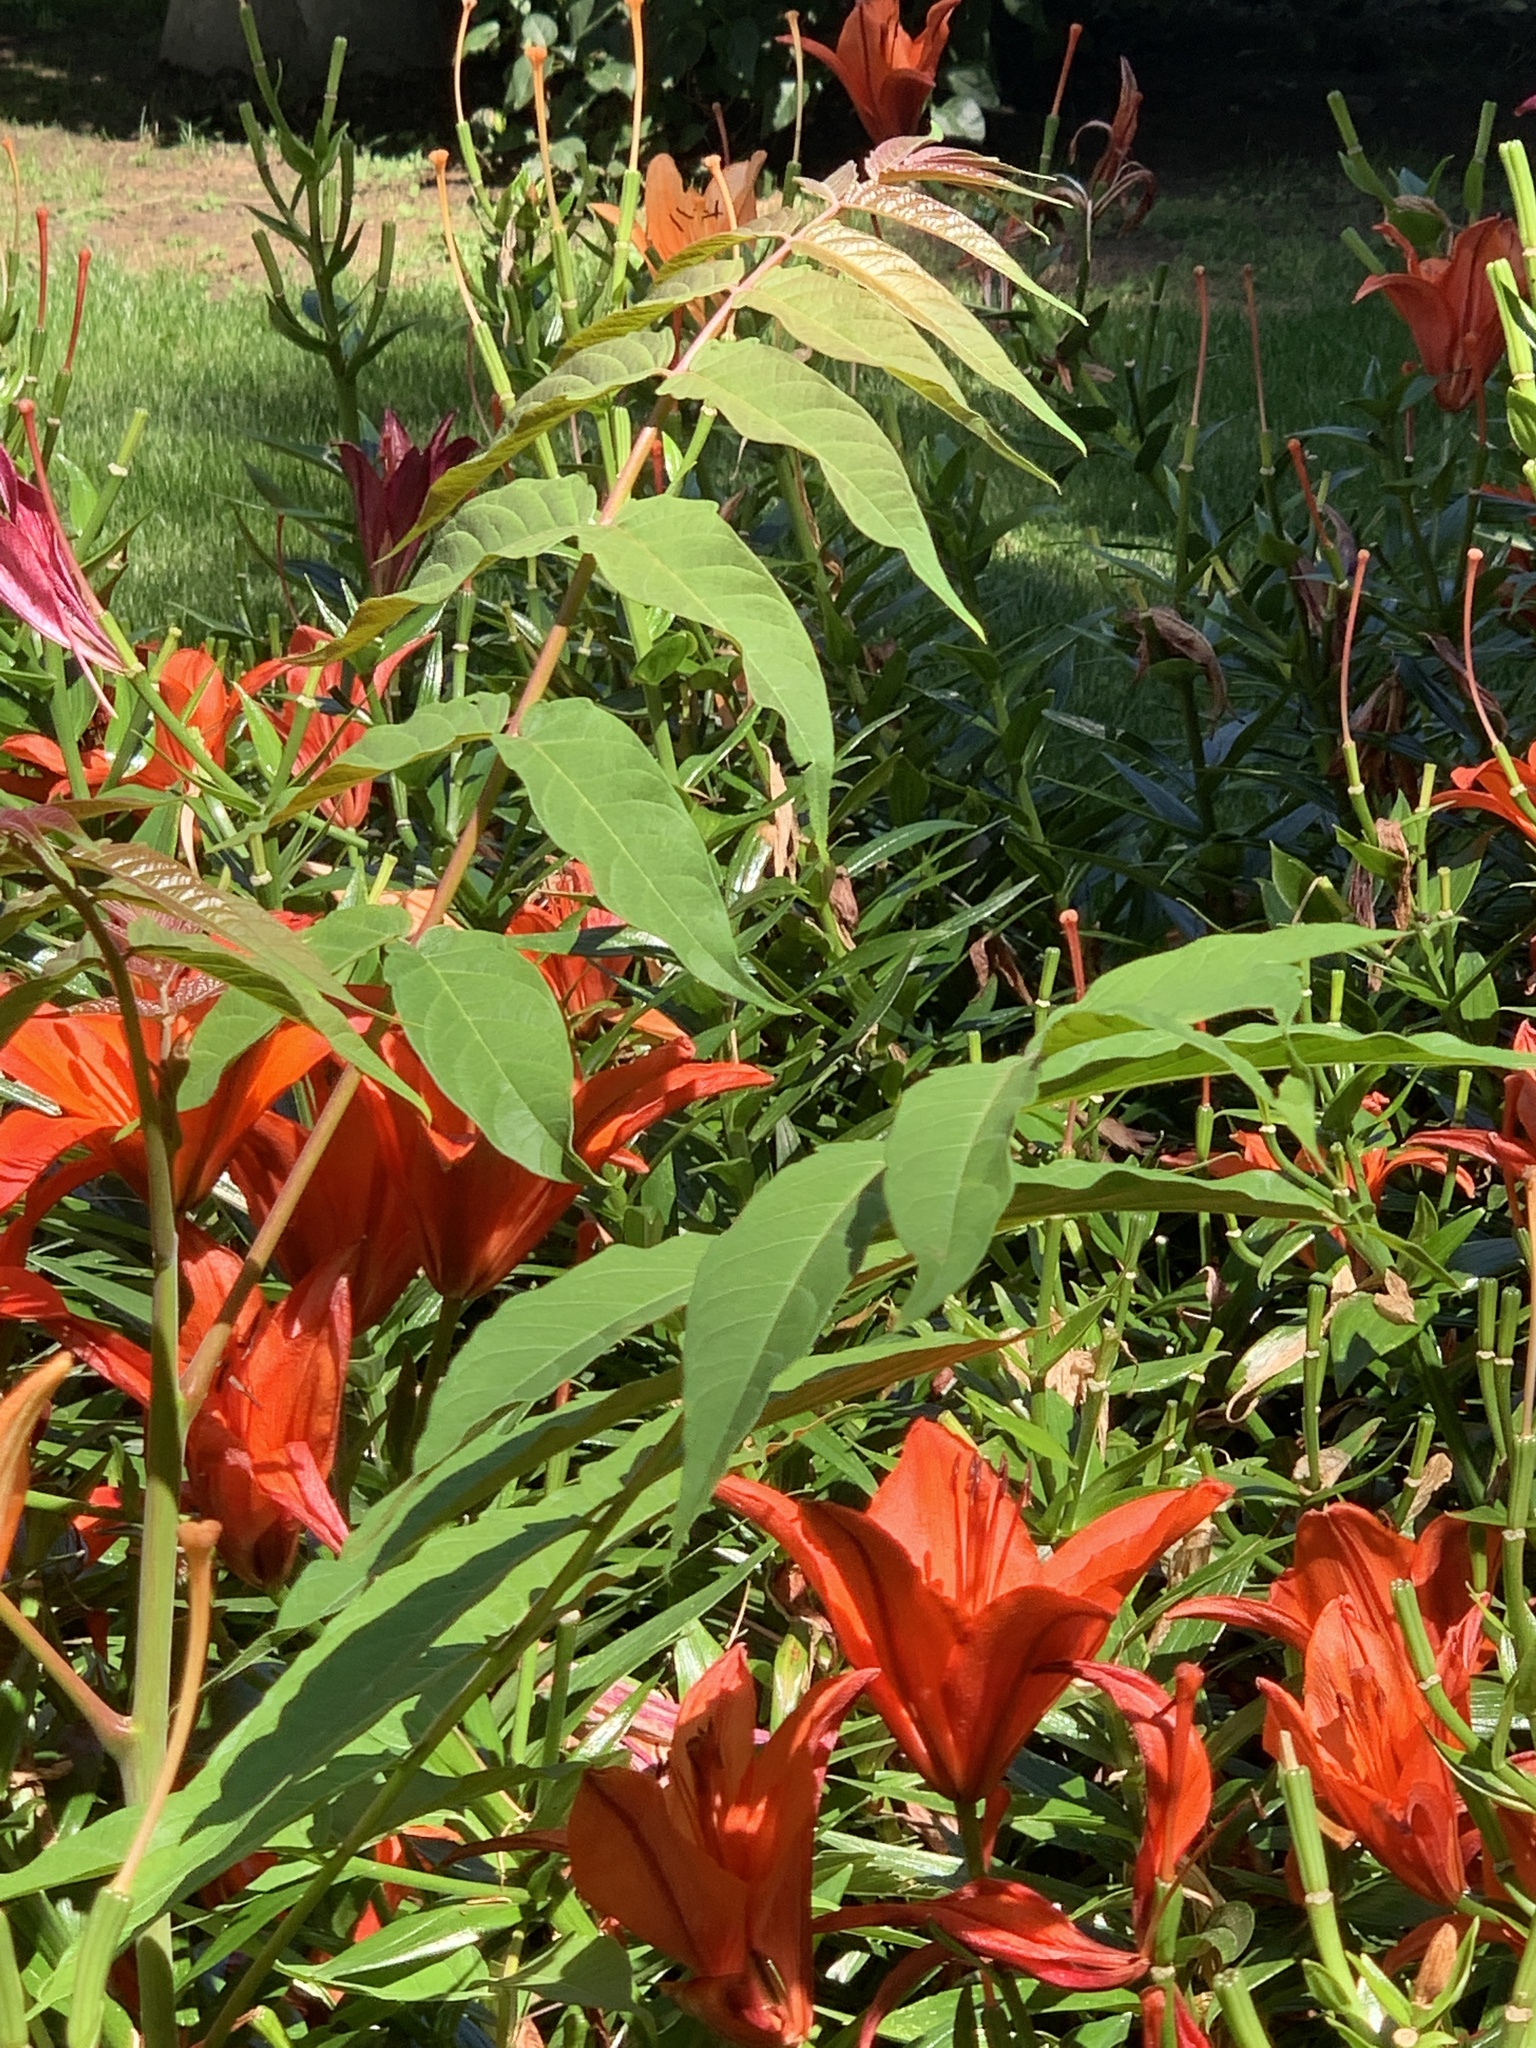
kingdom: Plantae
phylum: Tracheophyta
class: Magnoliopsida
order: Sapindales
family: Simaroubaceae
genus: Ailanthus
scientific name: Ailanthus altissima
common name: Tree-of-heaven
